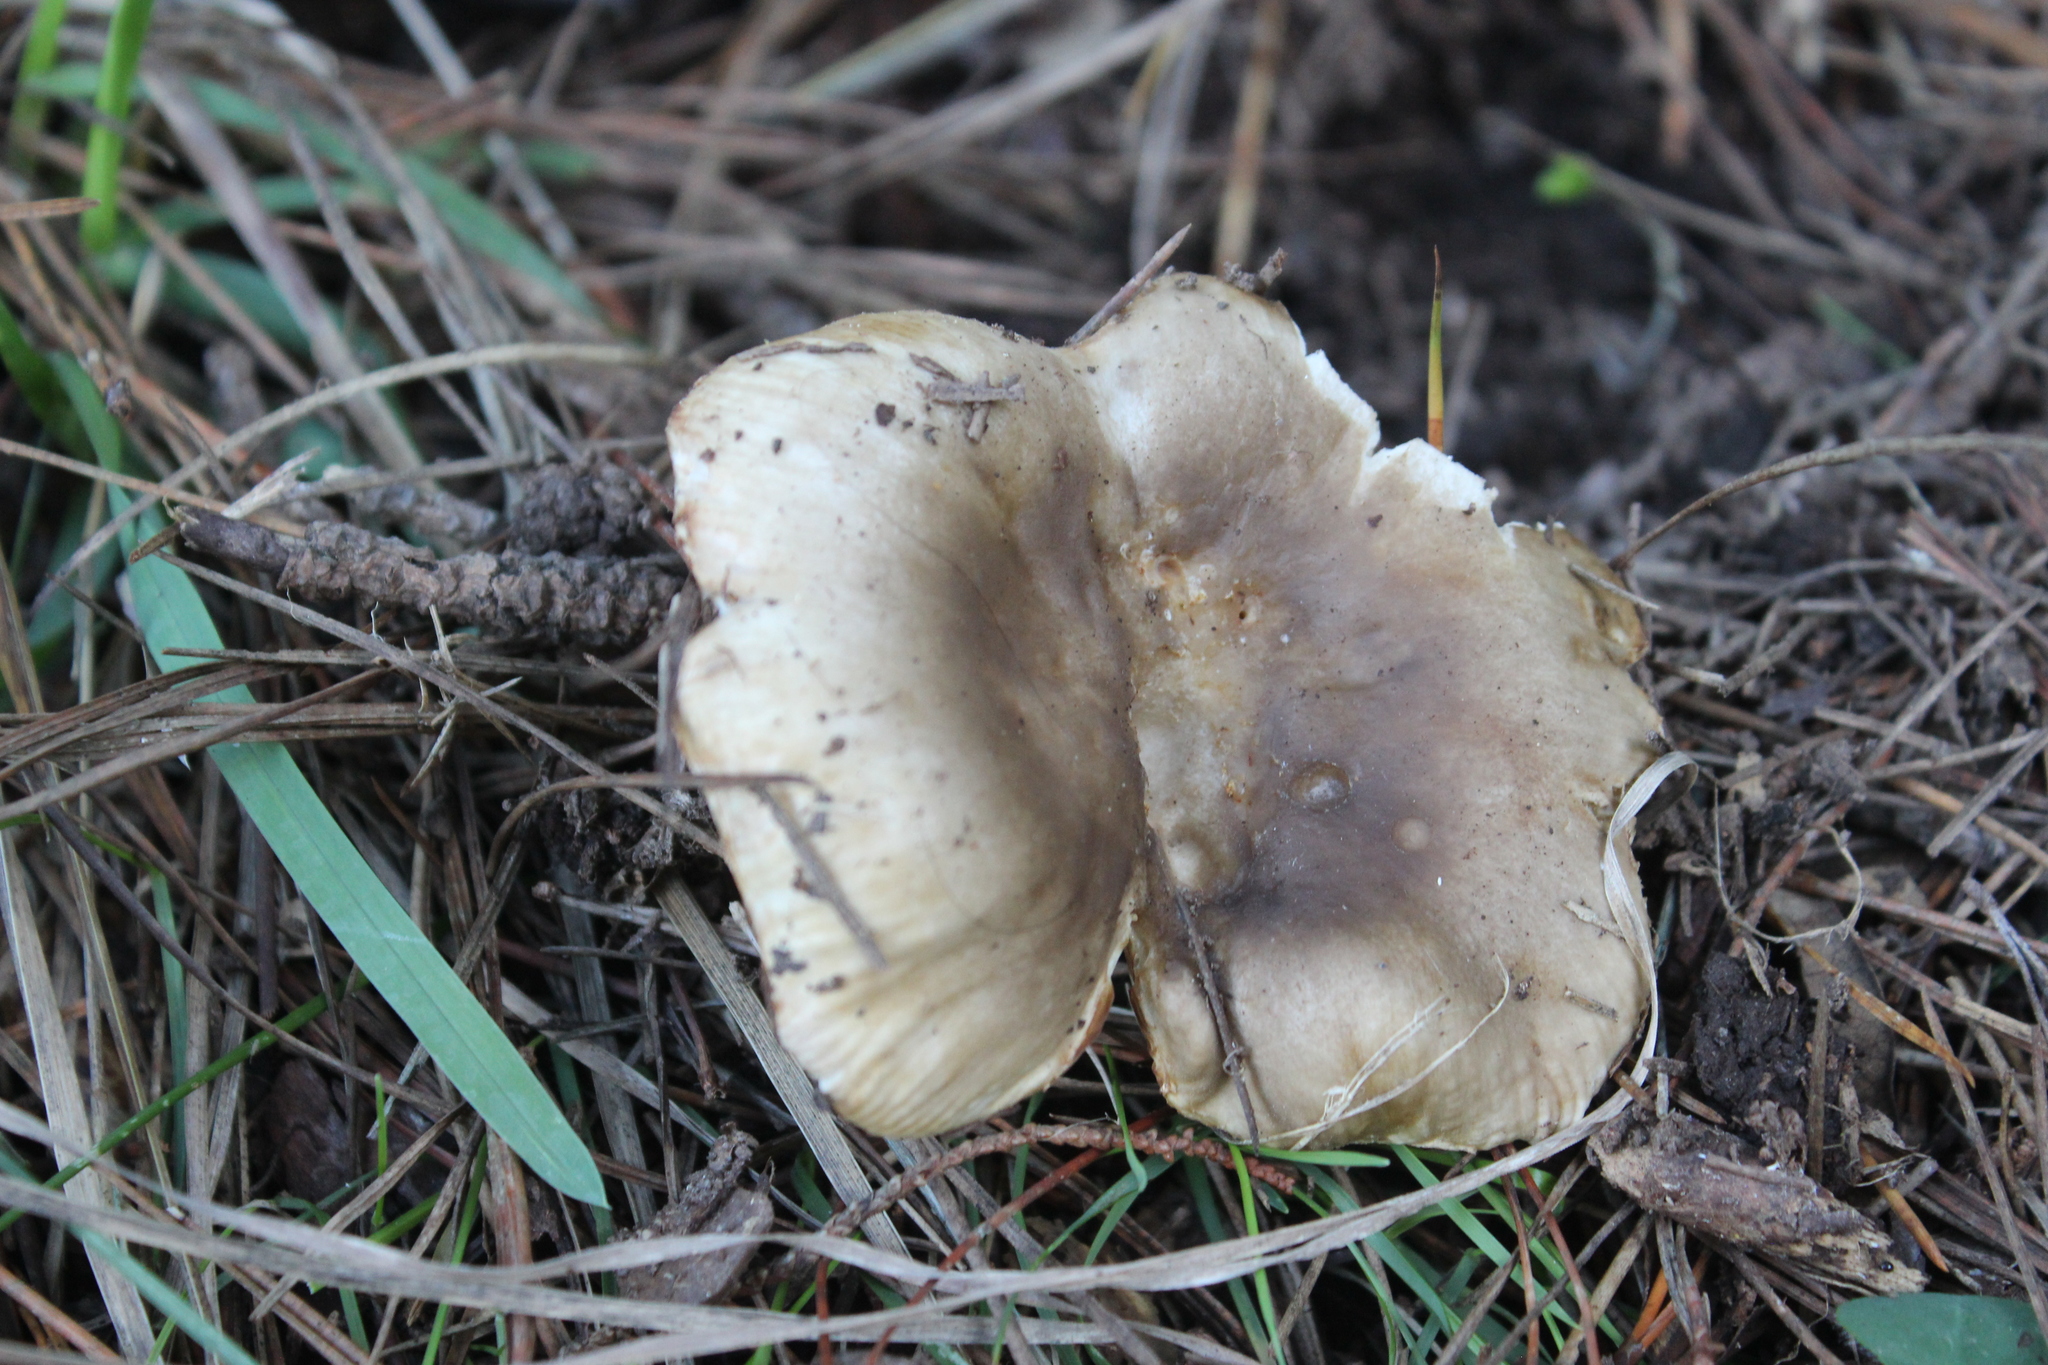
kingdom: Fungi
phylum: Basidiomycota
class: Agaricomycetes
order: Russulales
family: Russulaceae
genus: Russula
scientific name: Russula amoenolens
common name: Camembert brittlegill
